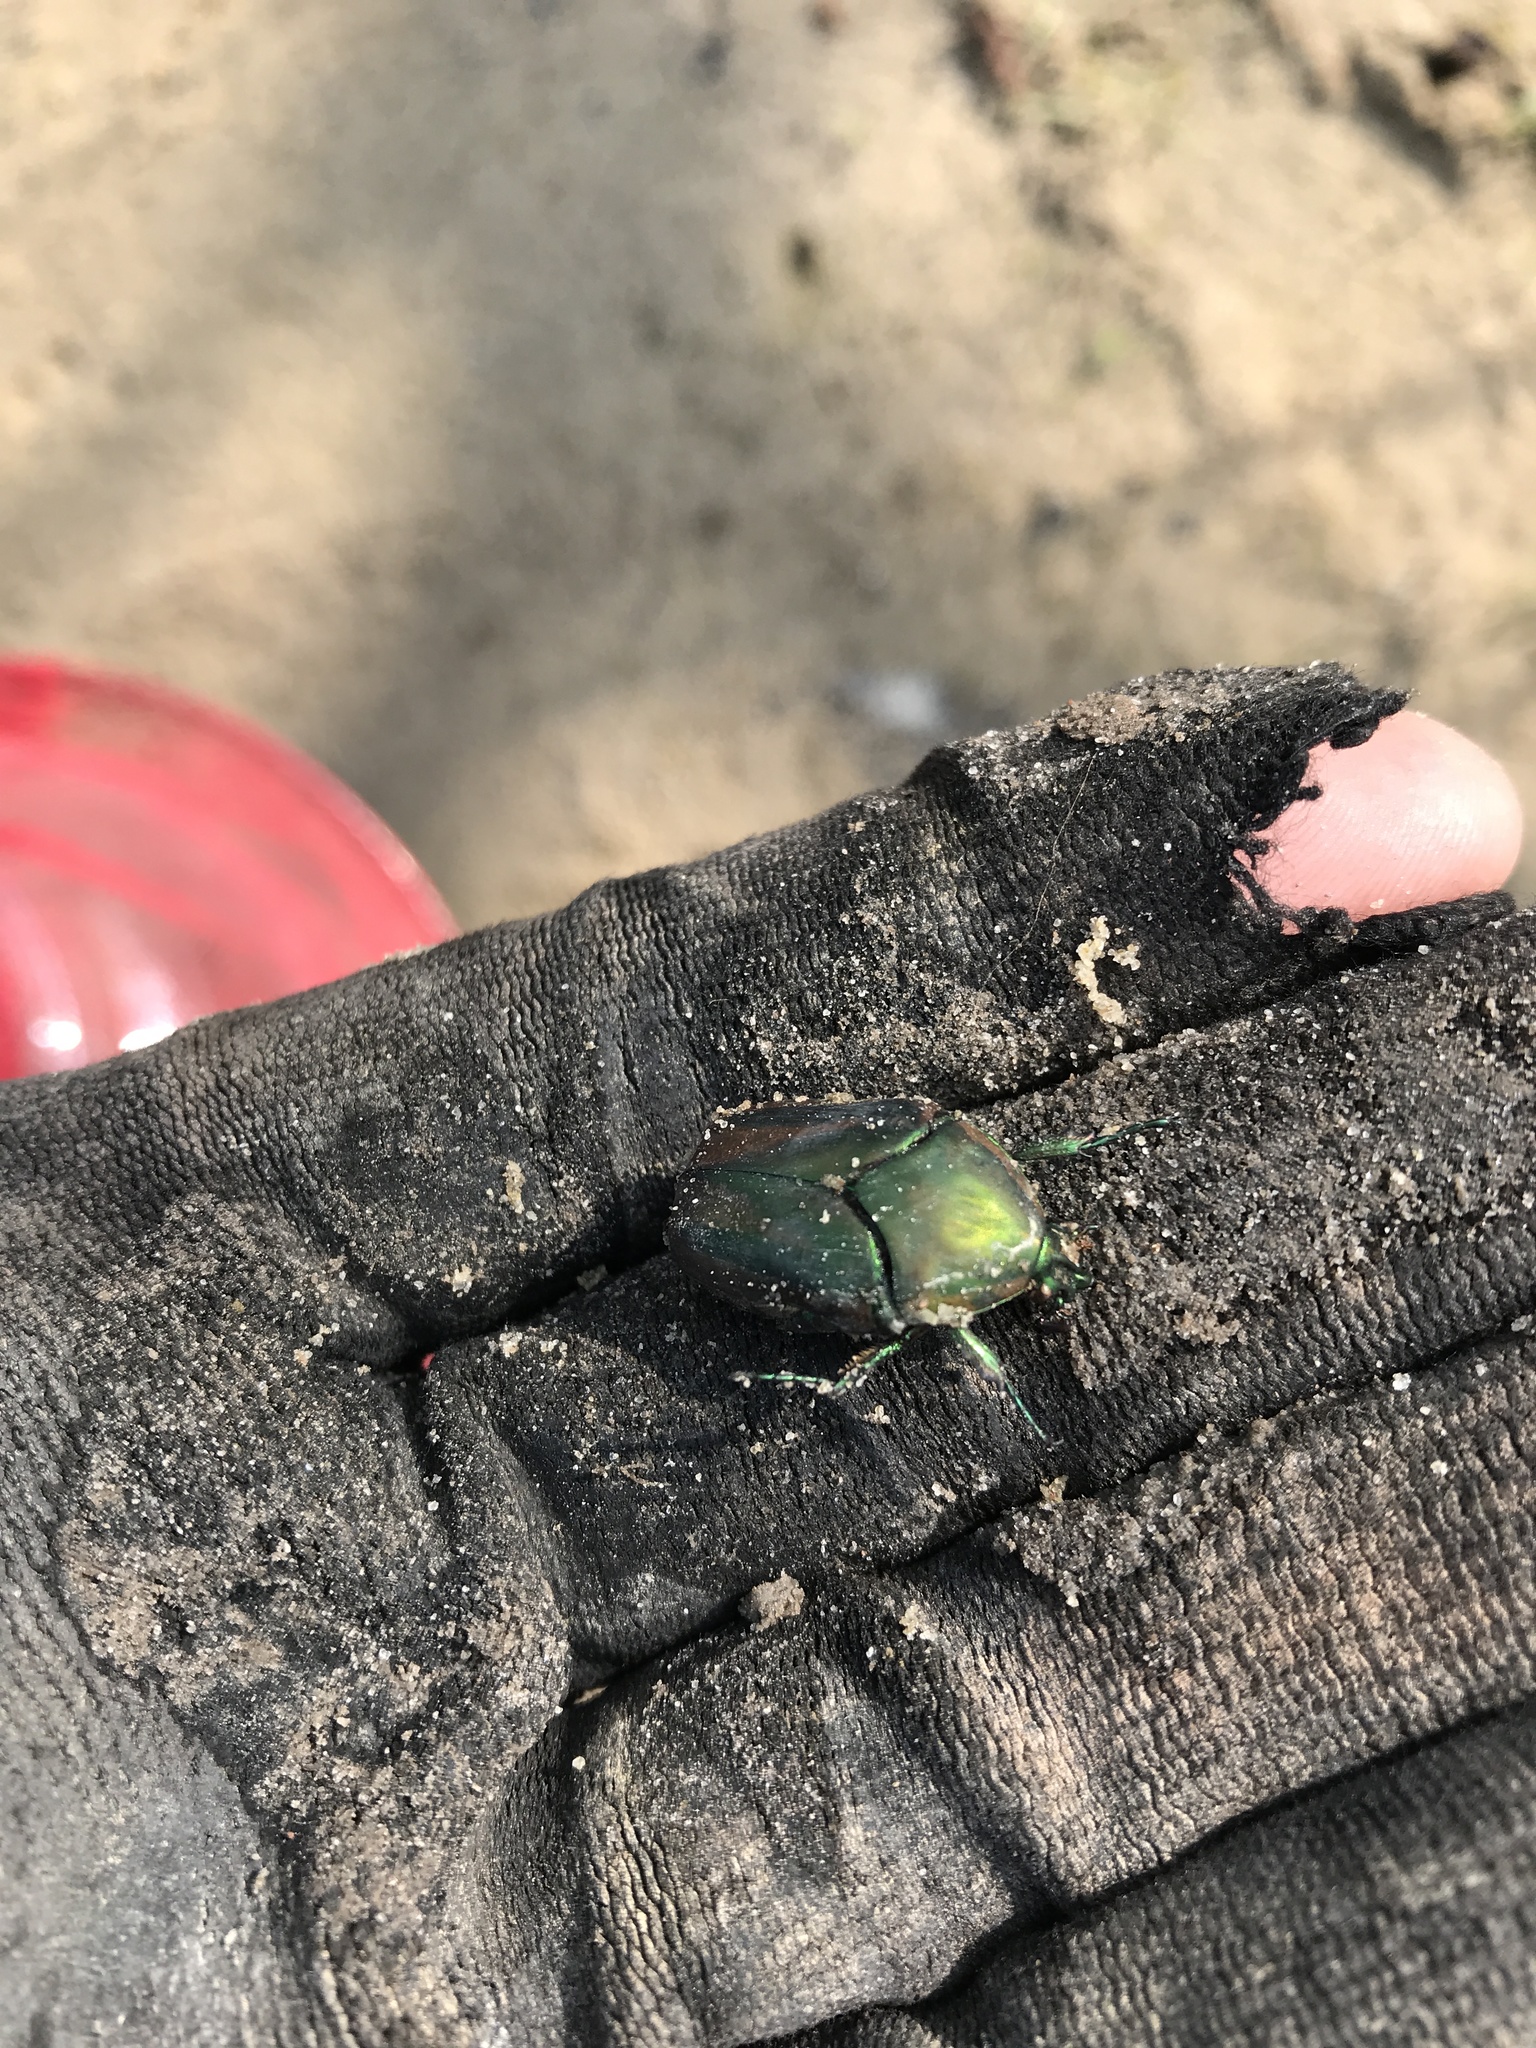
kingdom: Animalia
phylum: Arthropoda
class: Insecta
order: Coleoptera
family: Scarabaeidae
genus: Cotinis
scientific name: Cotinis nitida
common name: Common green june beetle
